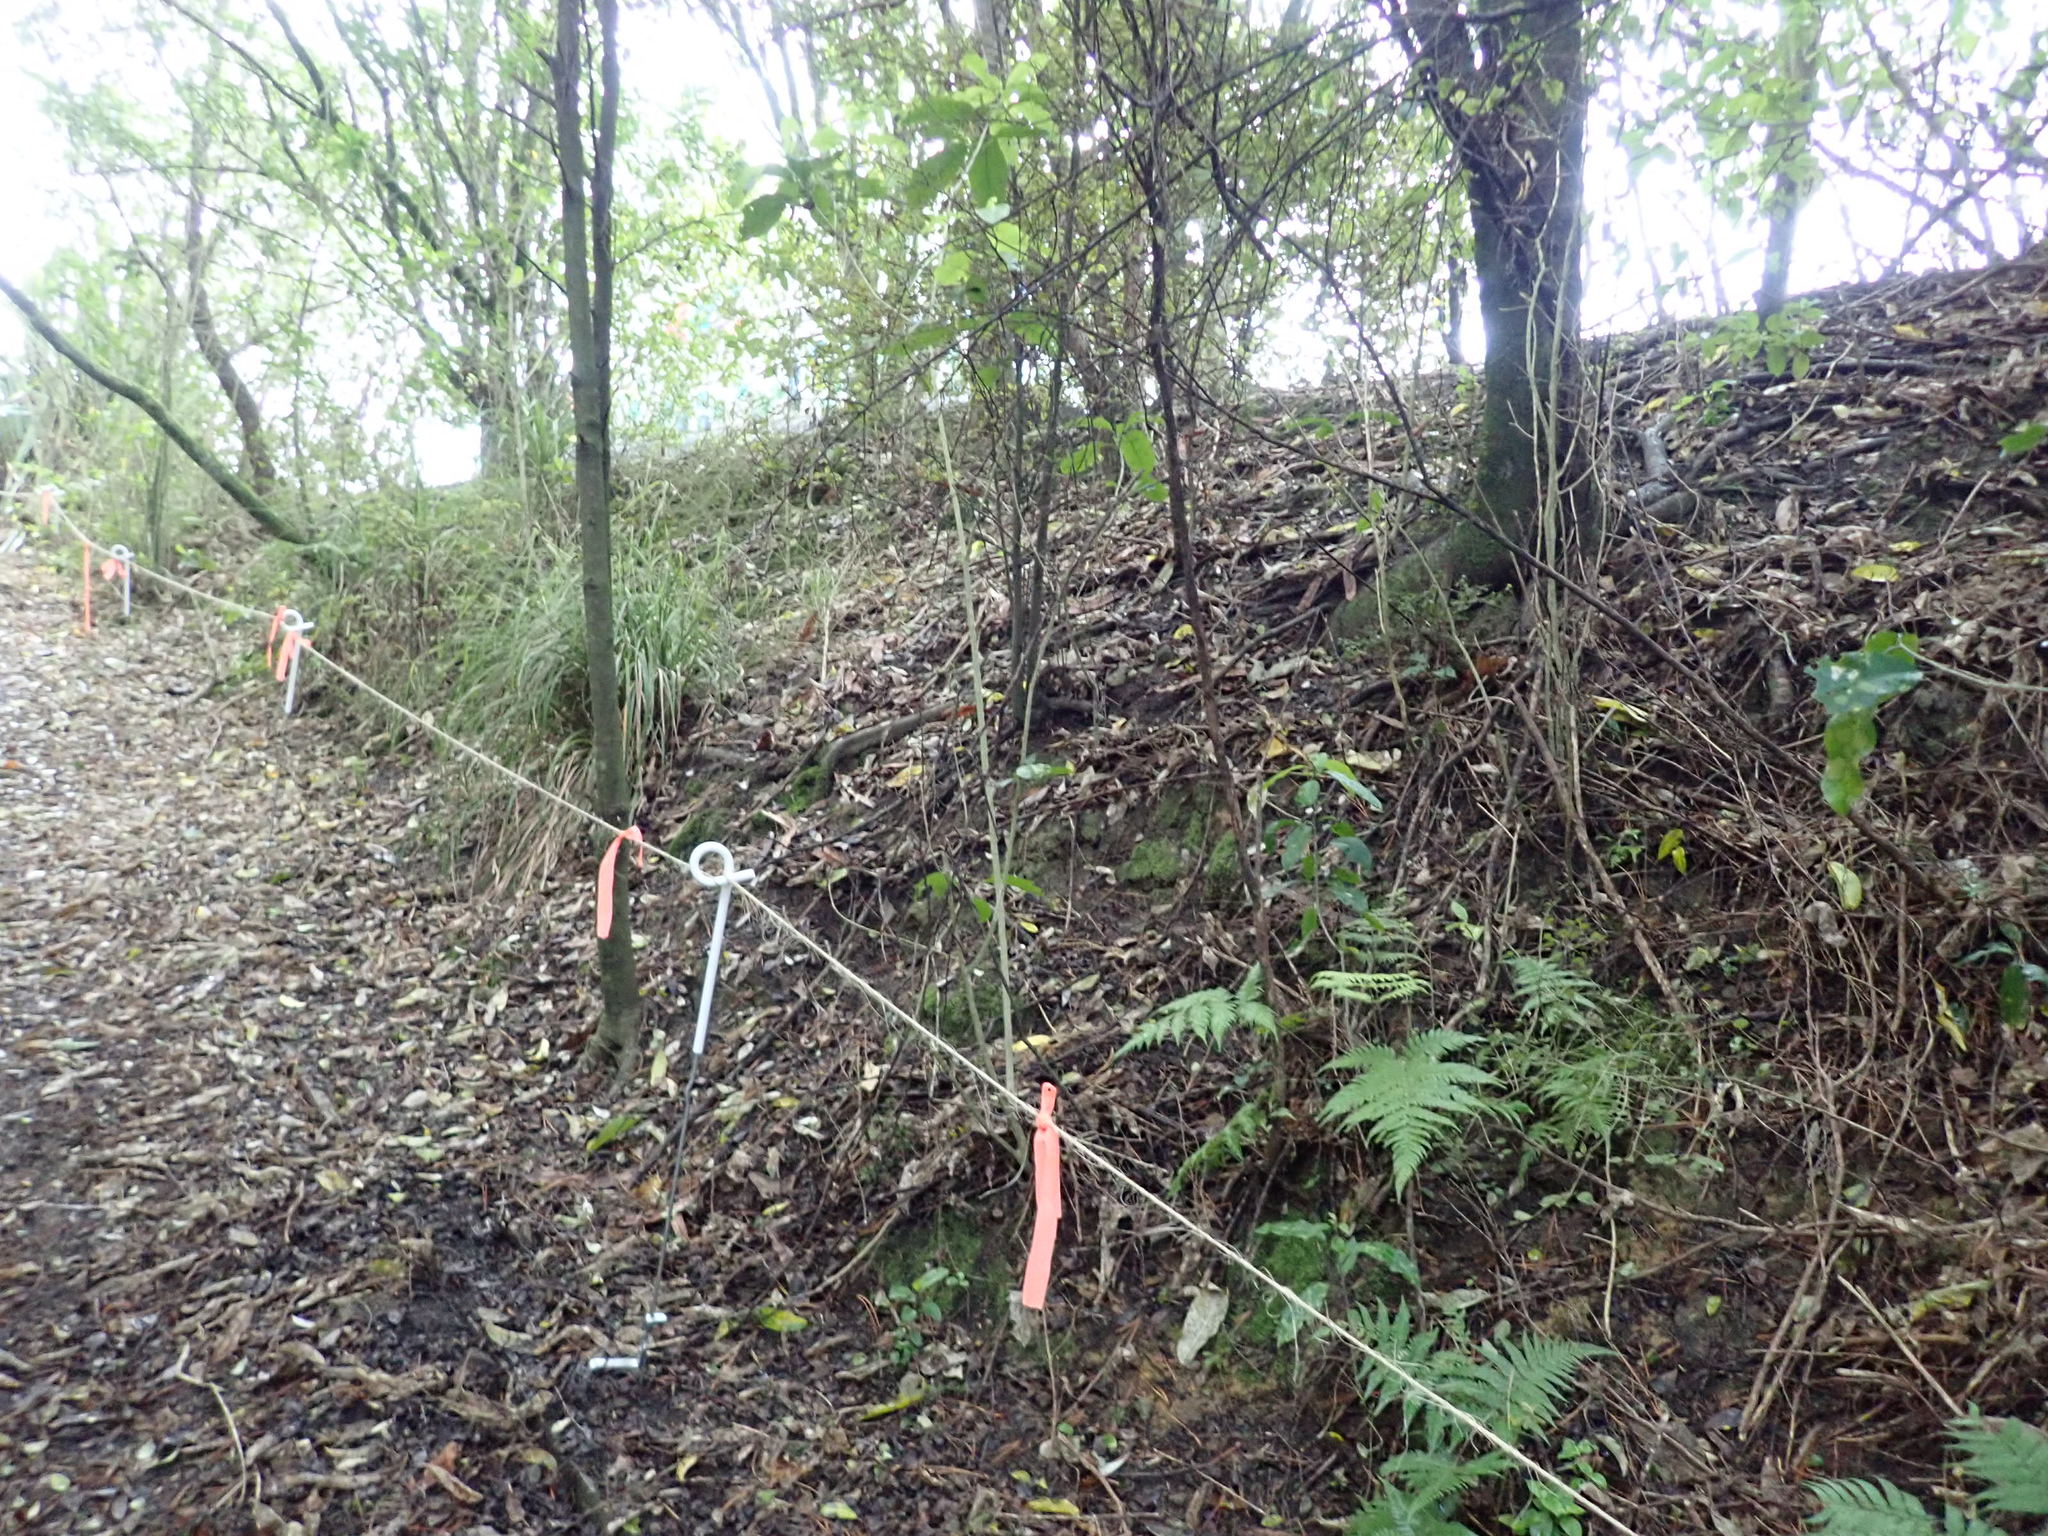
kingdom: Plantae
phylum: Tracheophyta
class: Magnoliopsida
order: Malpighiales
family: Violaceae
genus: Melicytus
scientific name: Melicytus ramiflorus
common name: Mahoe
